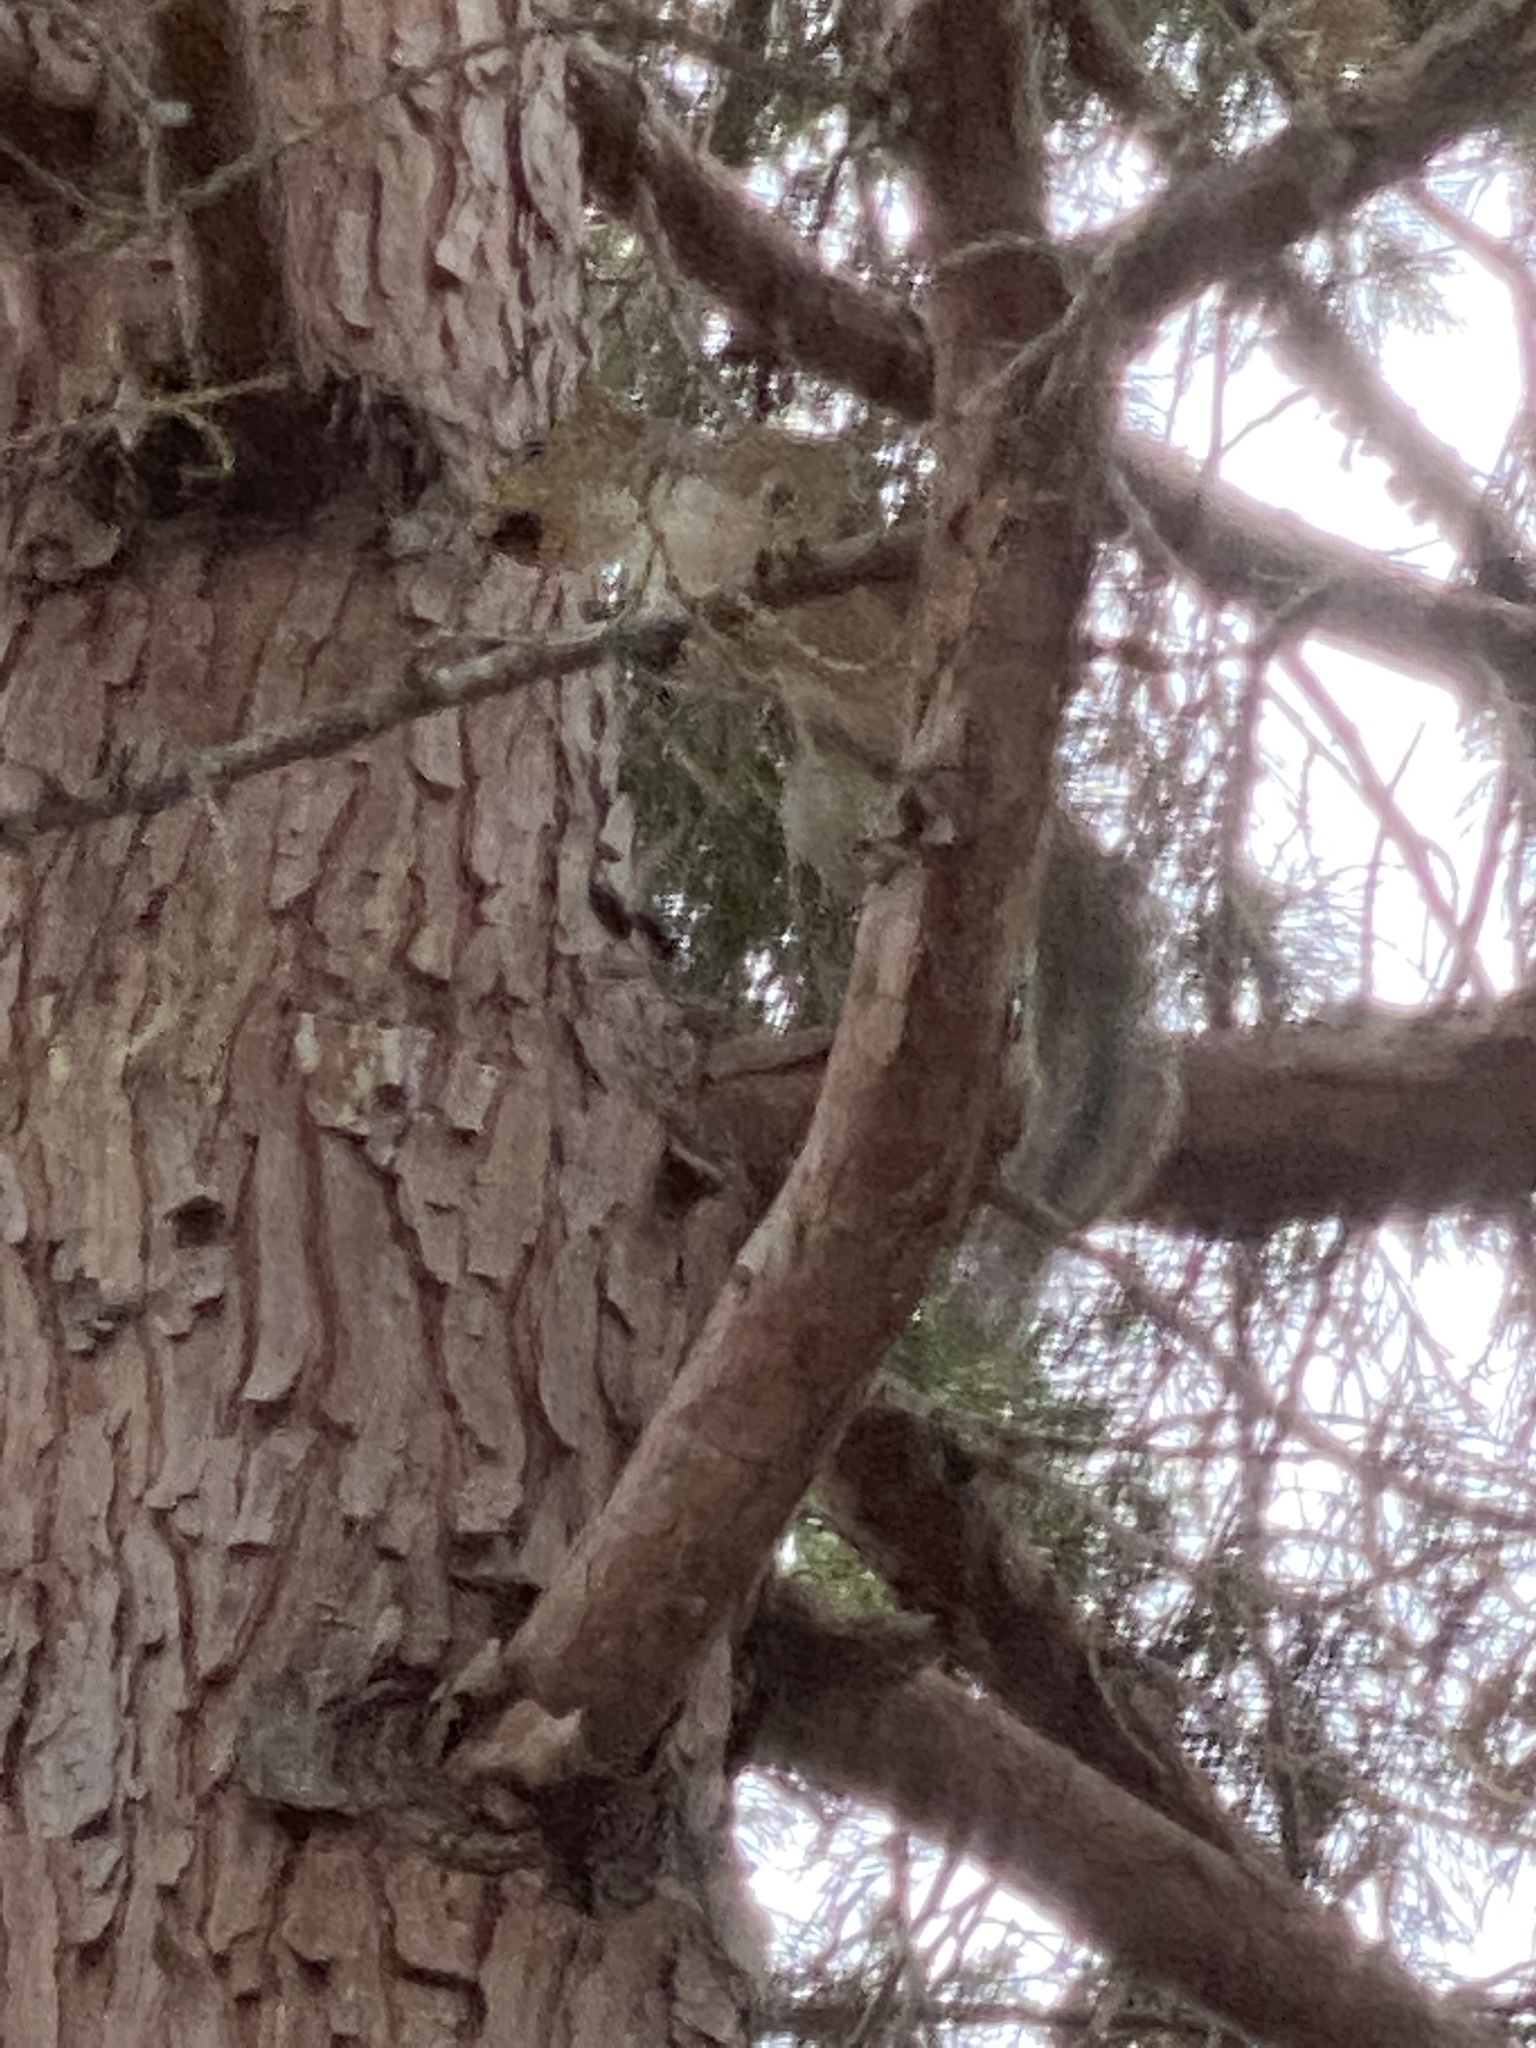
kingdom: Animalia
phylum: Chordata
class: Mammalia
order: Rodentia
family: Sciuridae
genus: Sciurus
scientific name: Sciurus carolinensis
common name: Eastern gray squirrel
